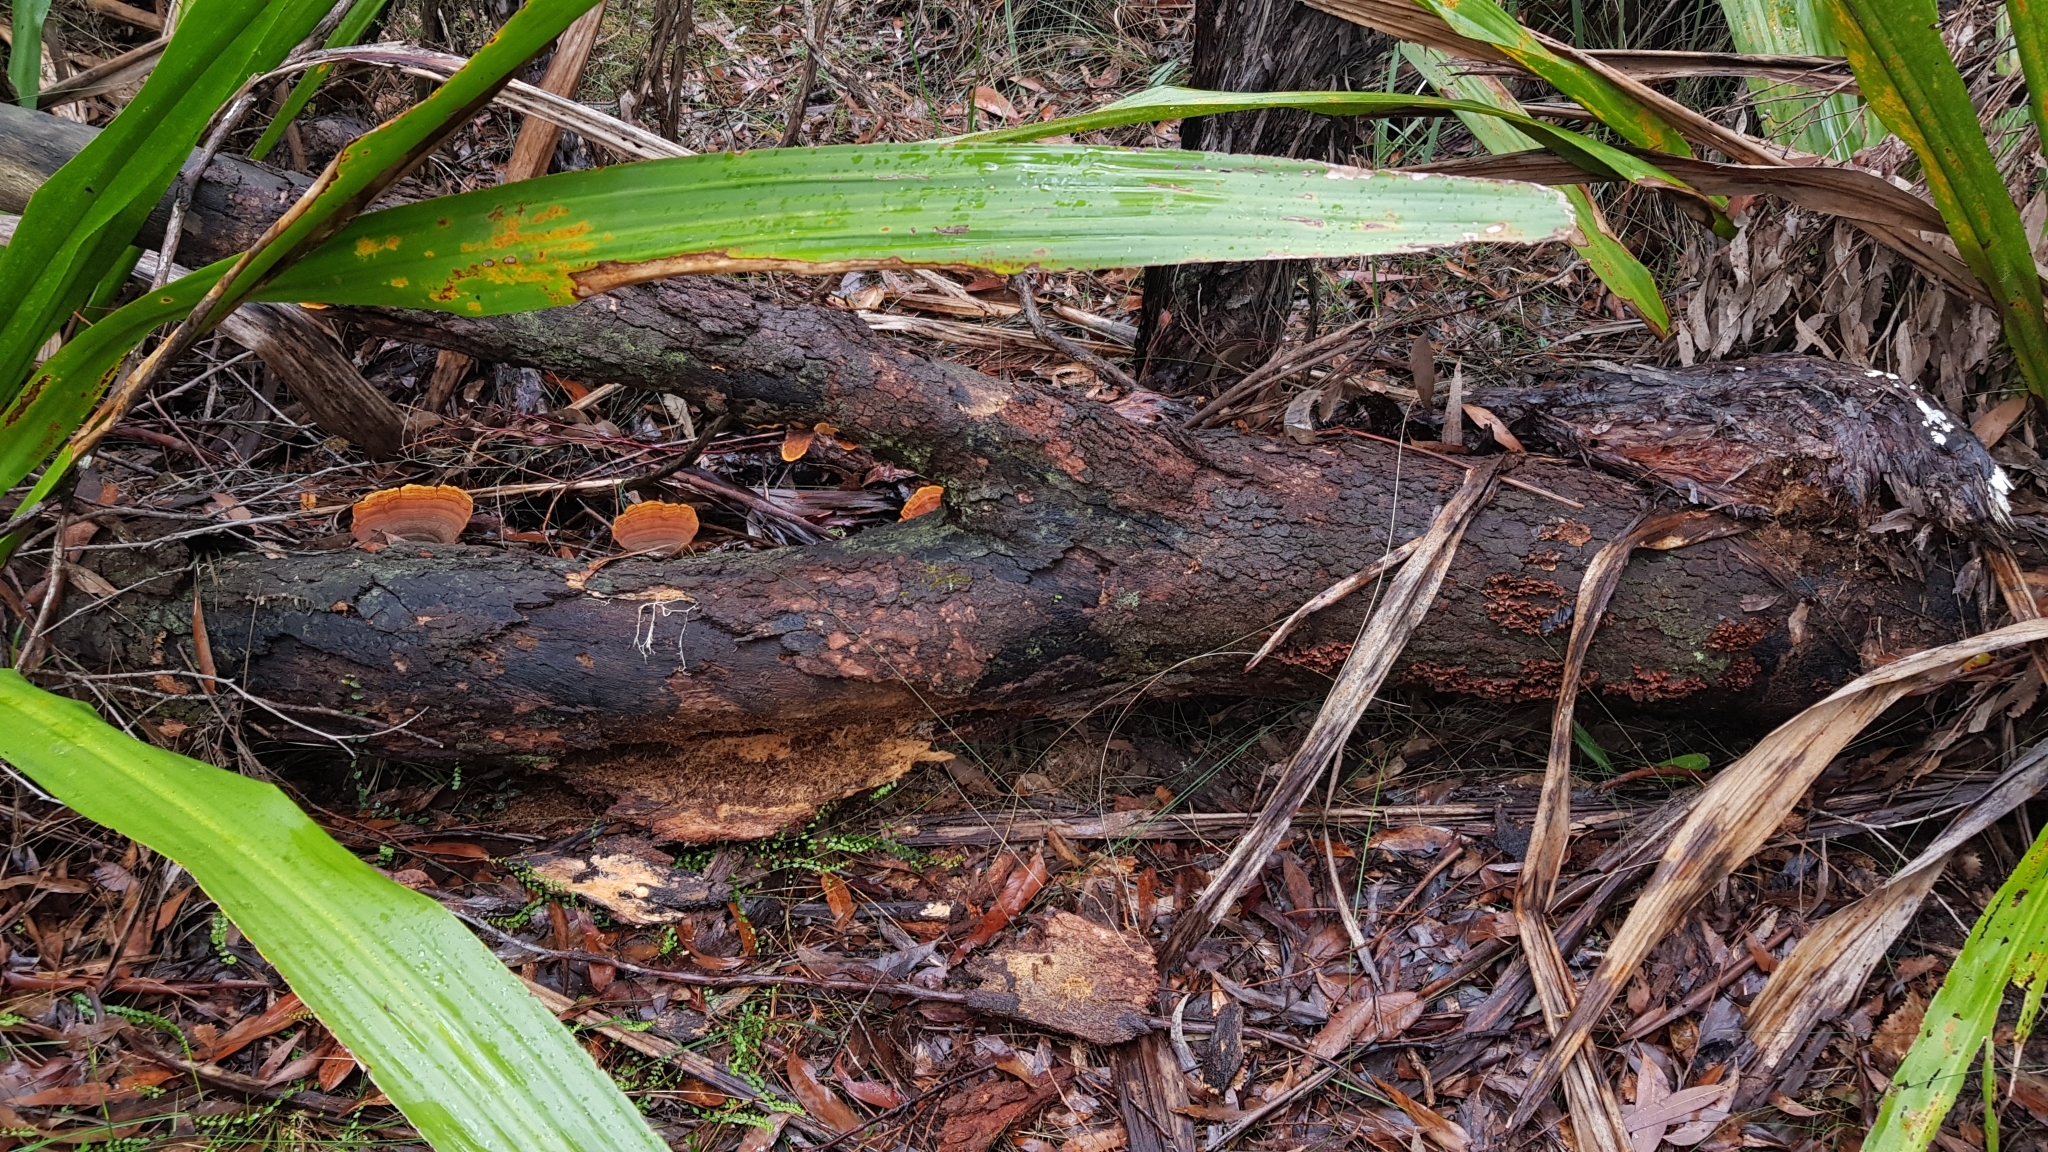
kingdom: Fungi
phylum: Basidiomycota
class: Agaricomycetes
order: Russulales
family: Stereaceae
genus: Stereum
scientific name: Stereum versicolor
